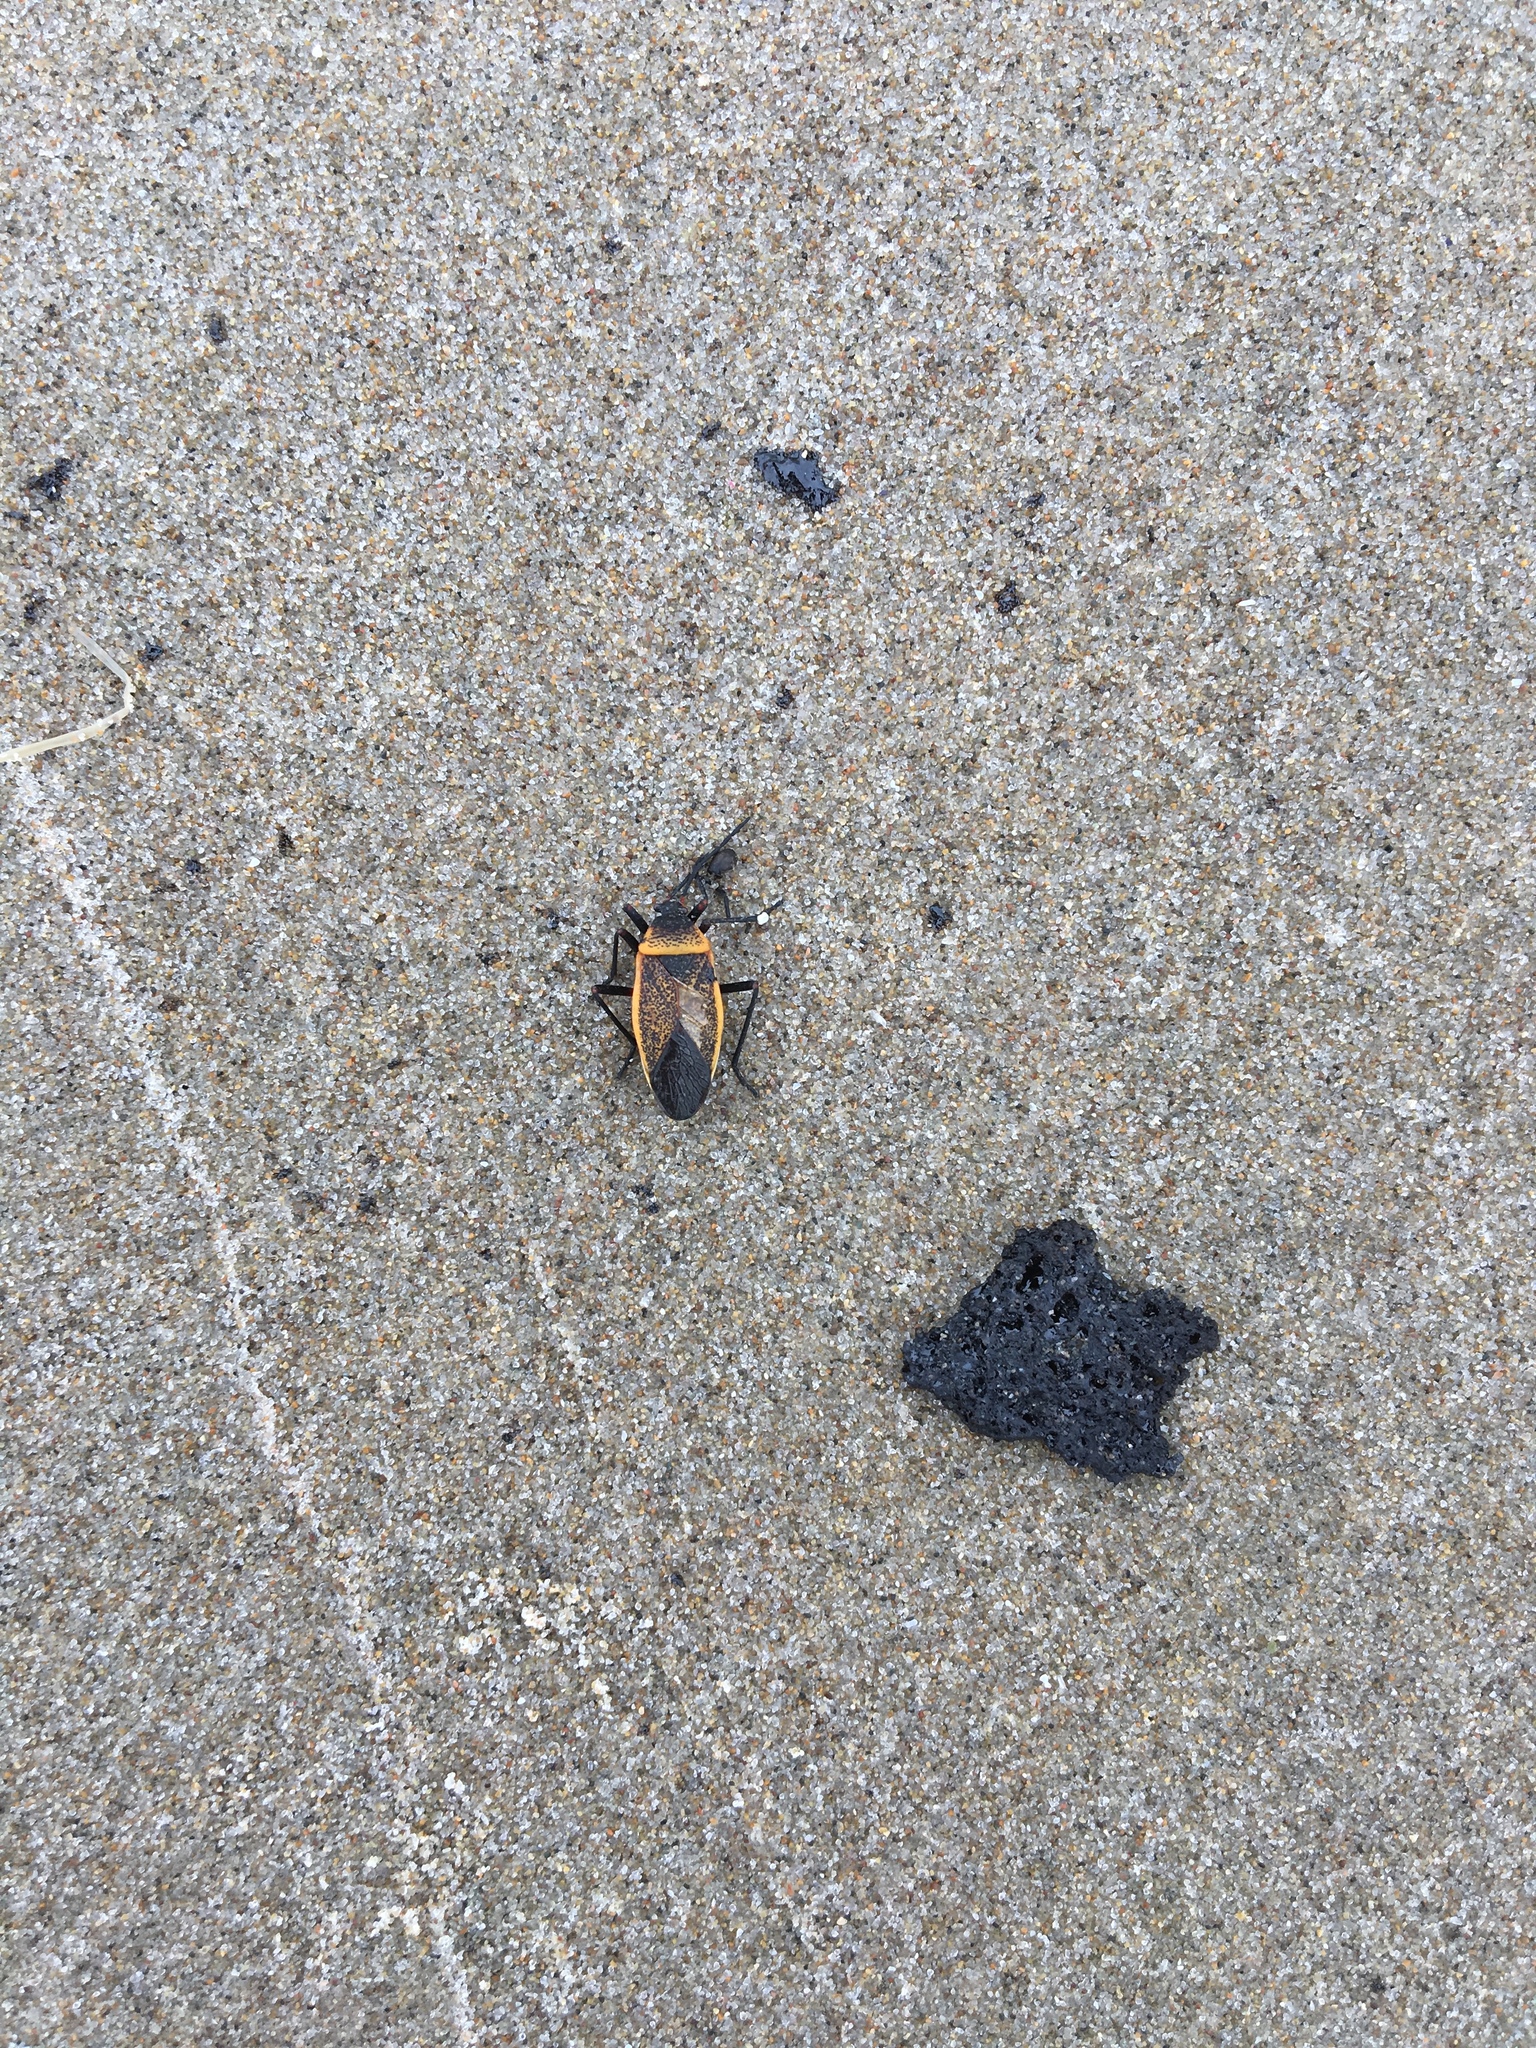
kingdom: Animalia
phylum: Arthropoda
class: Insecta
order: Hemiptera
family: Largidae
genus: Largus
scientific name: Largus succinctus
